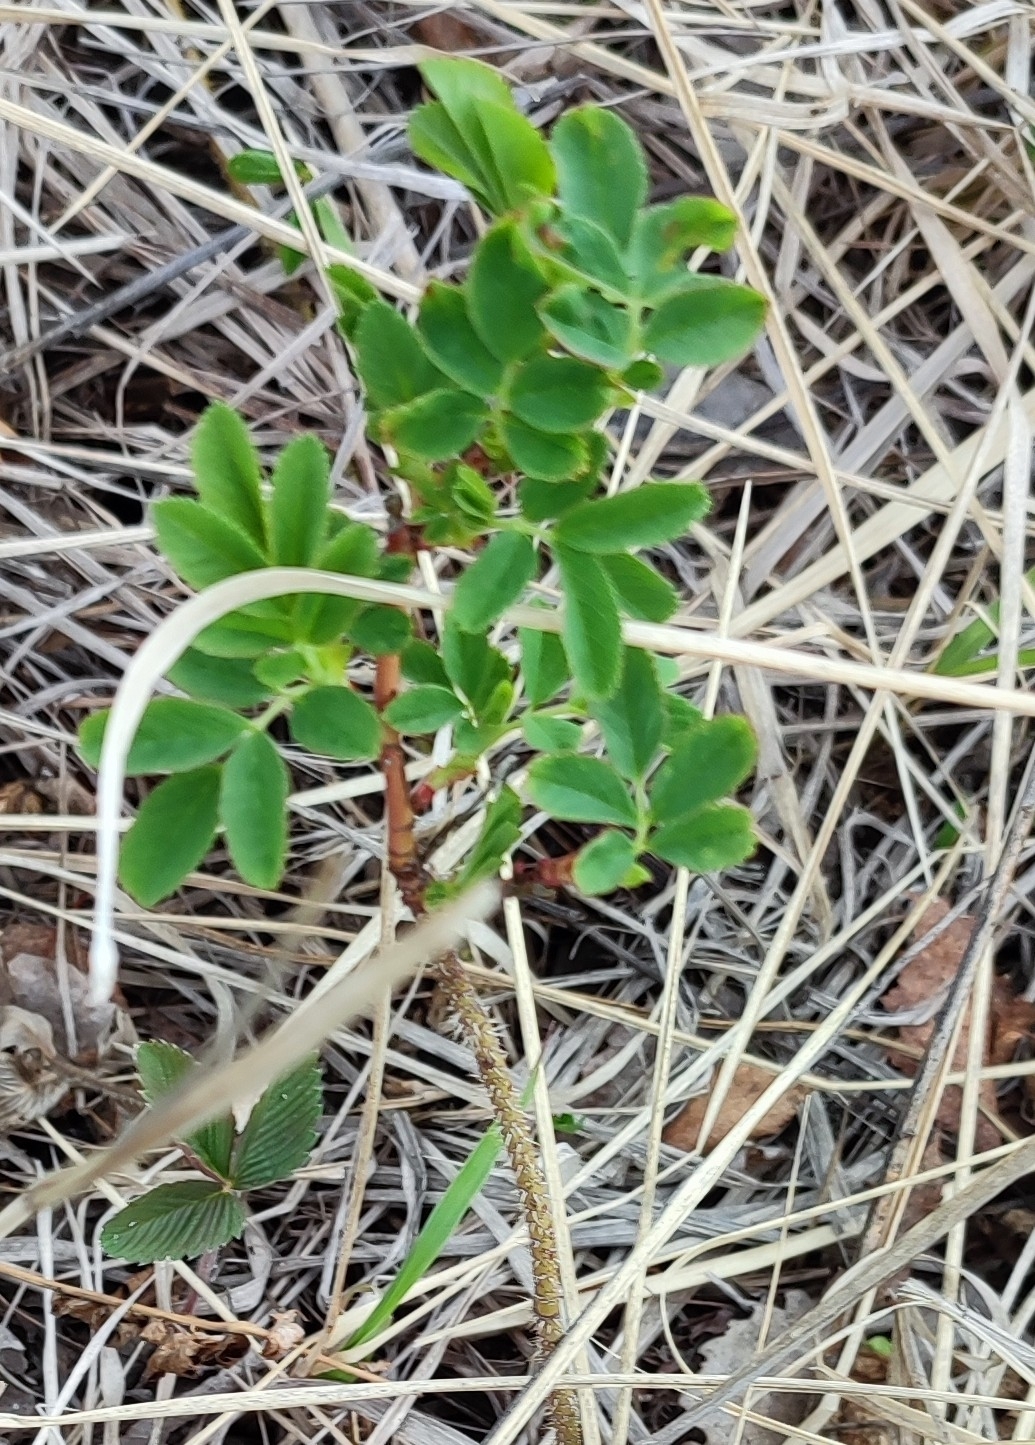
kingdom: Plantae
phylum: Tracheophyta
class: Magnoliopsida
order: Rosales
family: Rosaceae
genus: Rosa
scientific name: Rosa majalis
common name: Cinnamon rose
